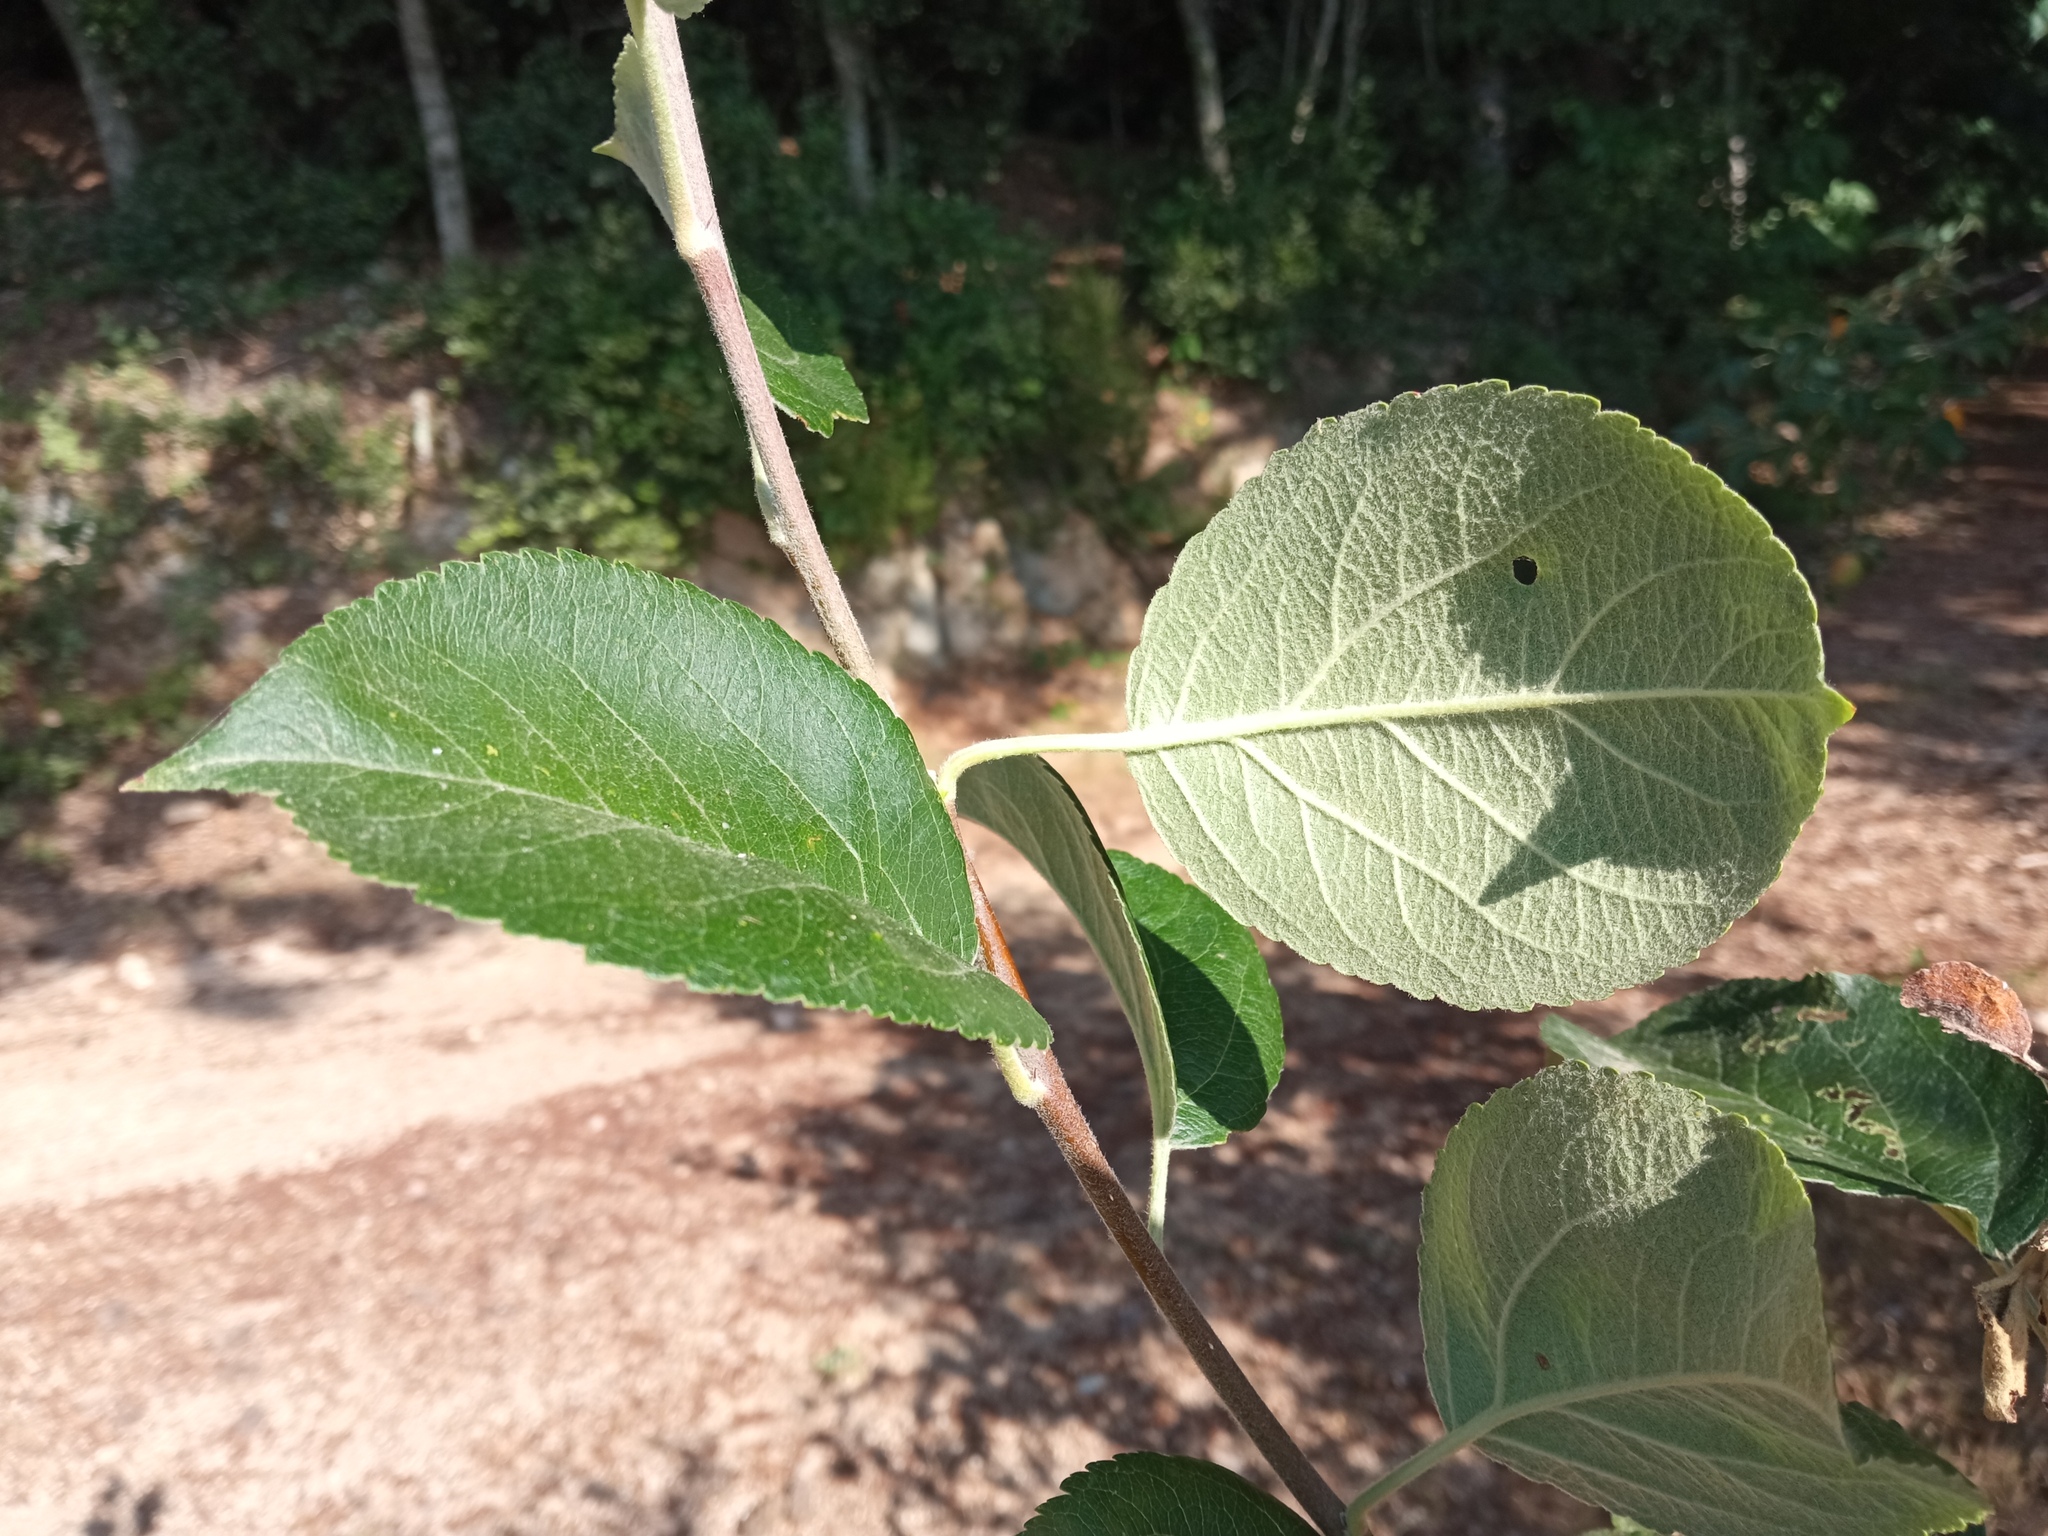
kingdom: Plantae
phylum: Tracheophyta
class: Magnoliopsida
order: Rosales
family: Rosaceae
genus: Malus
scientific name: Malus domestica
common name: Apple
